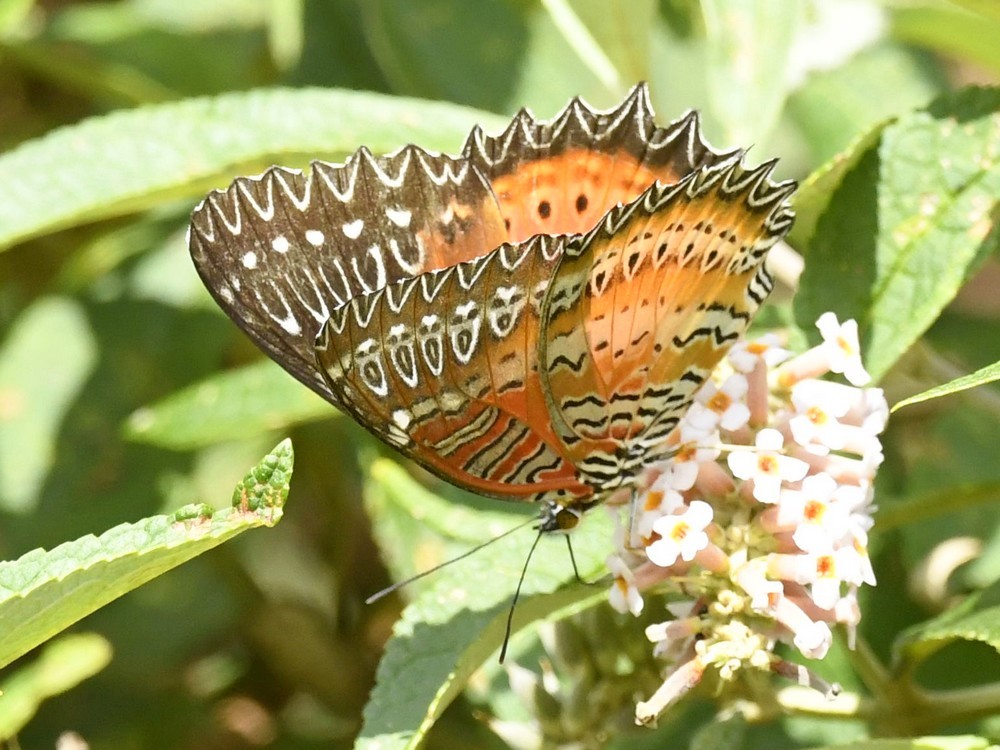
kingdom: Animalia
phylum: Arthropoda
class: Insecta
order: Lepidoptera
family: Nymphalidae
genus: Cethosia
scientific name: Cethosia biblis
